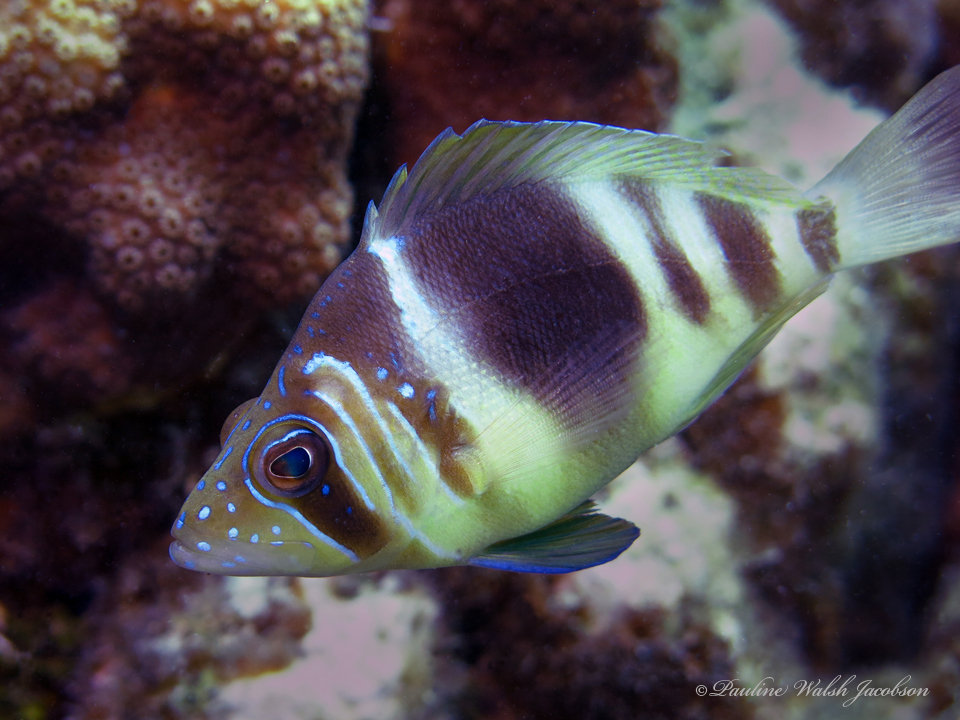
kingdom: Animalia
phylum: Chordata
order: Perciformes
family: Serranidae
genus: Hypoplectrus
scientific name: Hypoplectrus puella
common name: Barred hamlet
